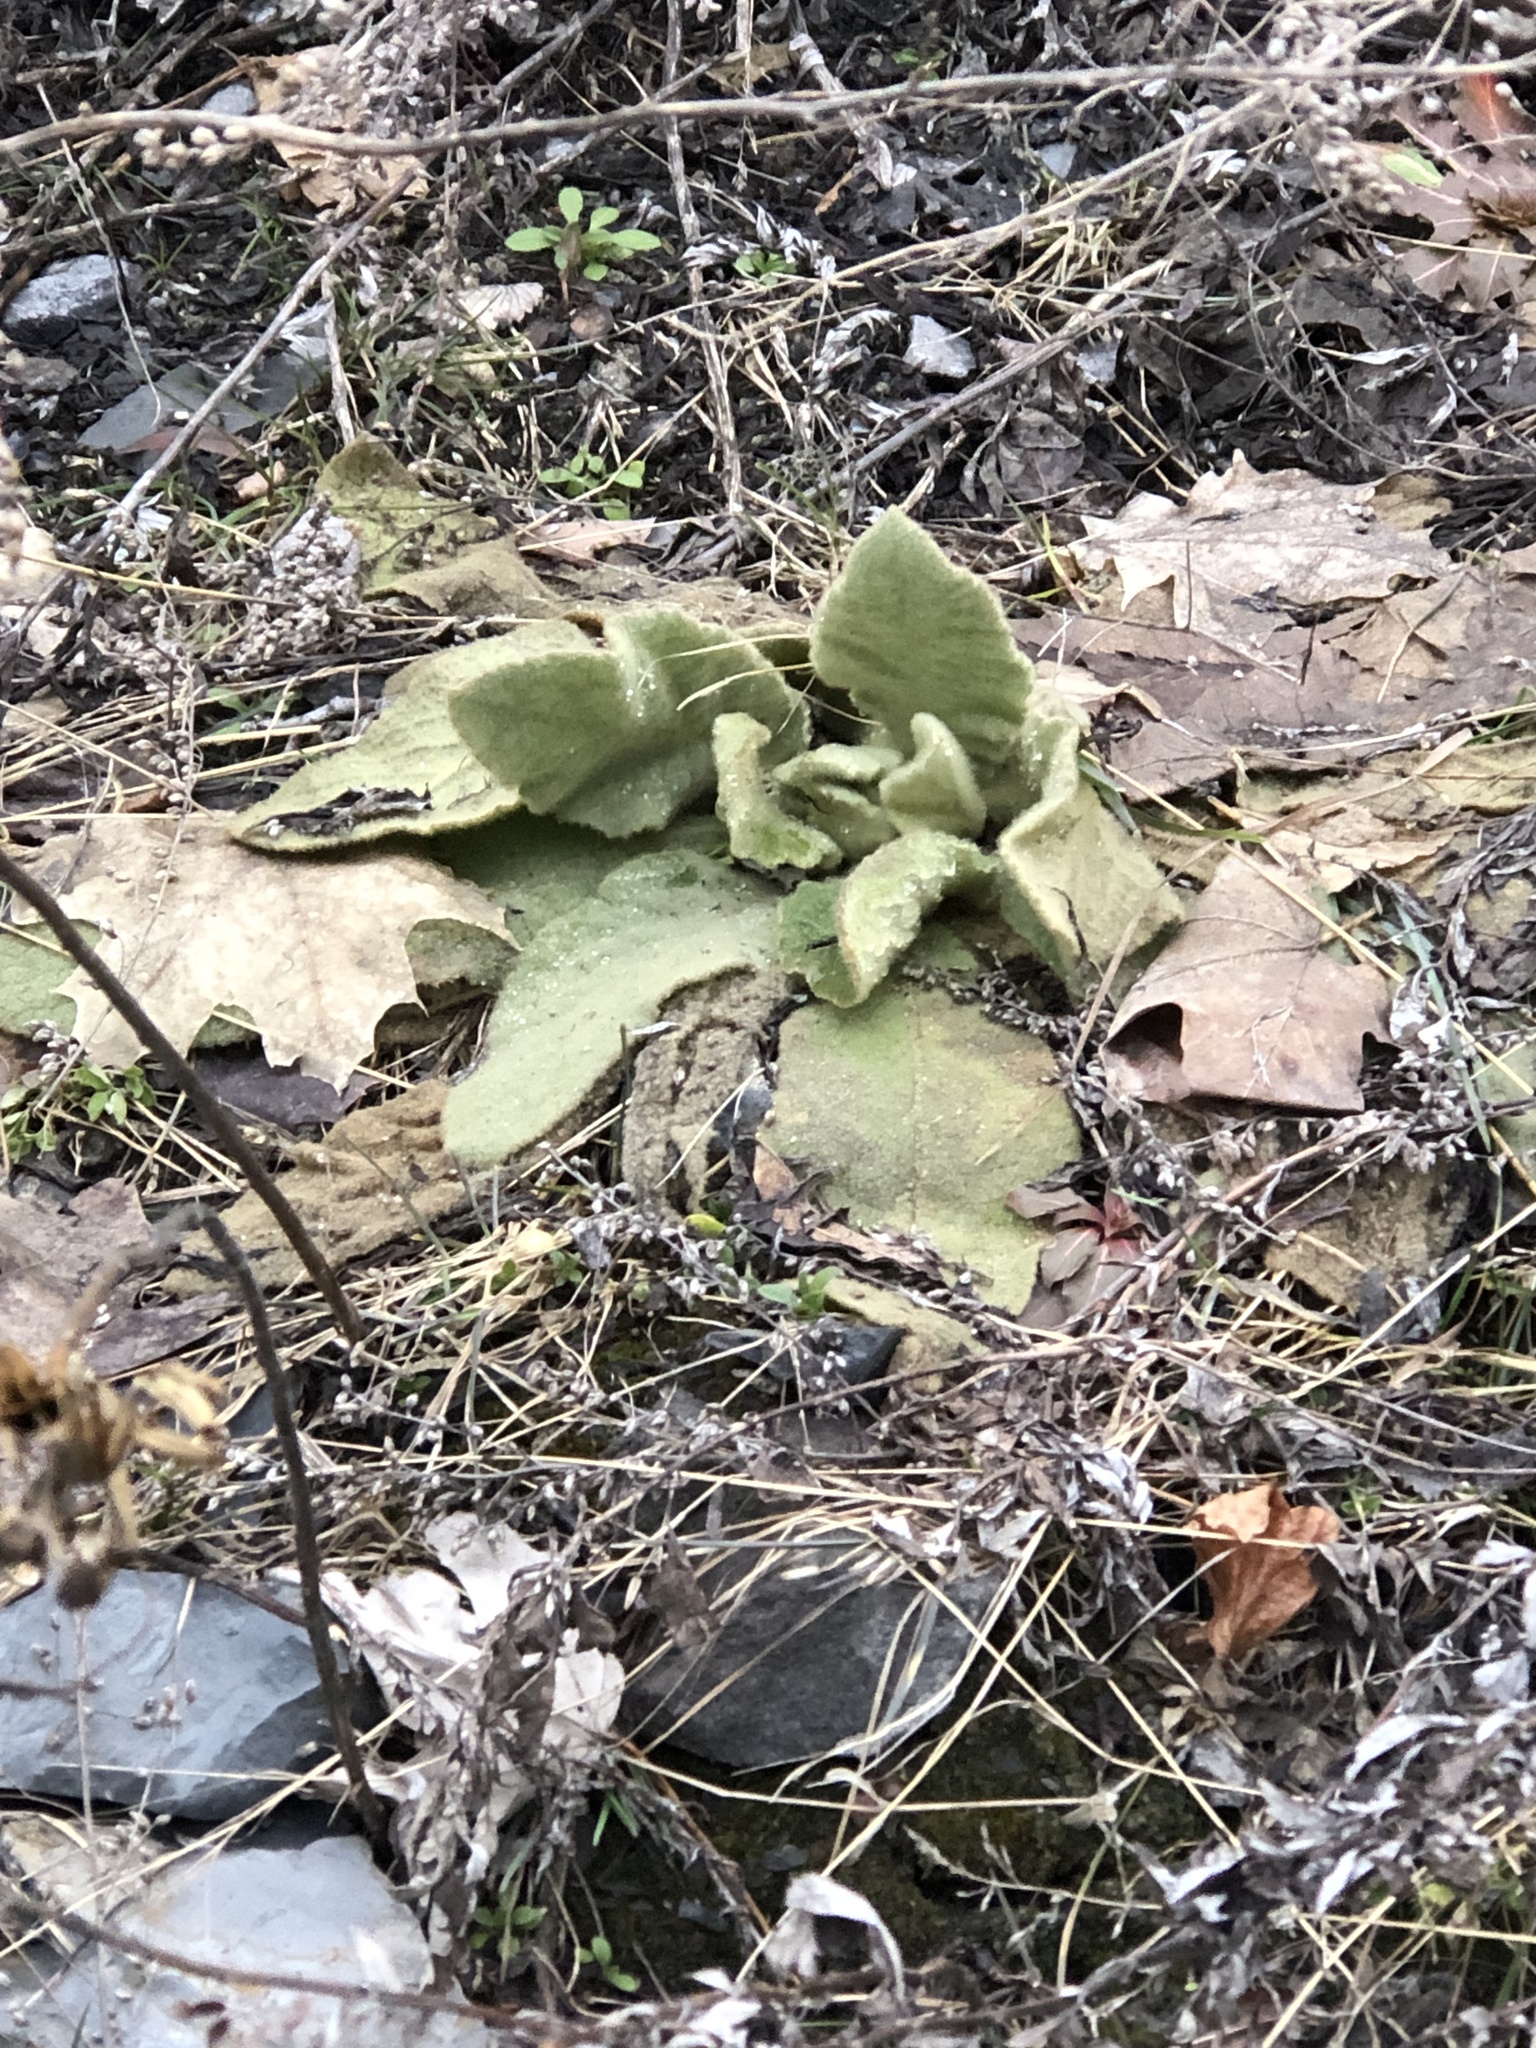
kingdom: Plantae
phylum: Tracheophyta
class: Magnoliopsida
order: Lamiales
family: Scrophulariaceae
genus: Verbascum
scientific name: Verbascum thapsus
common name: Common mullein
